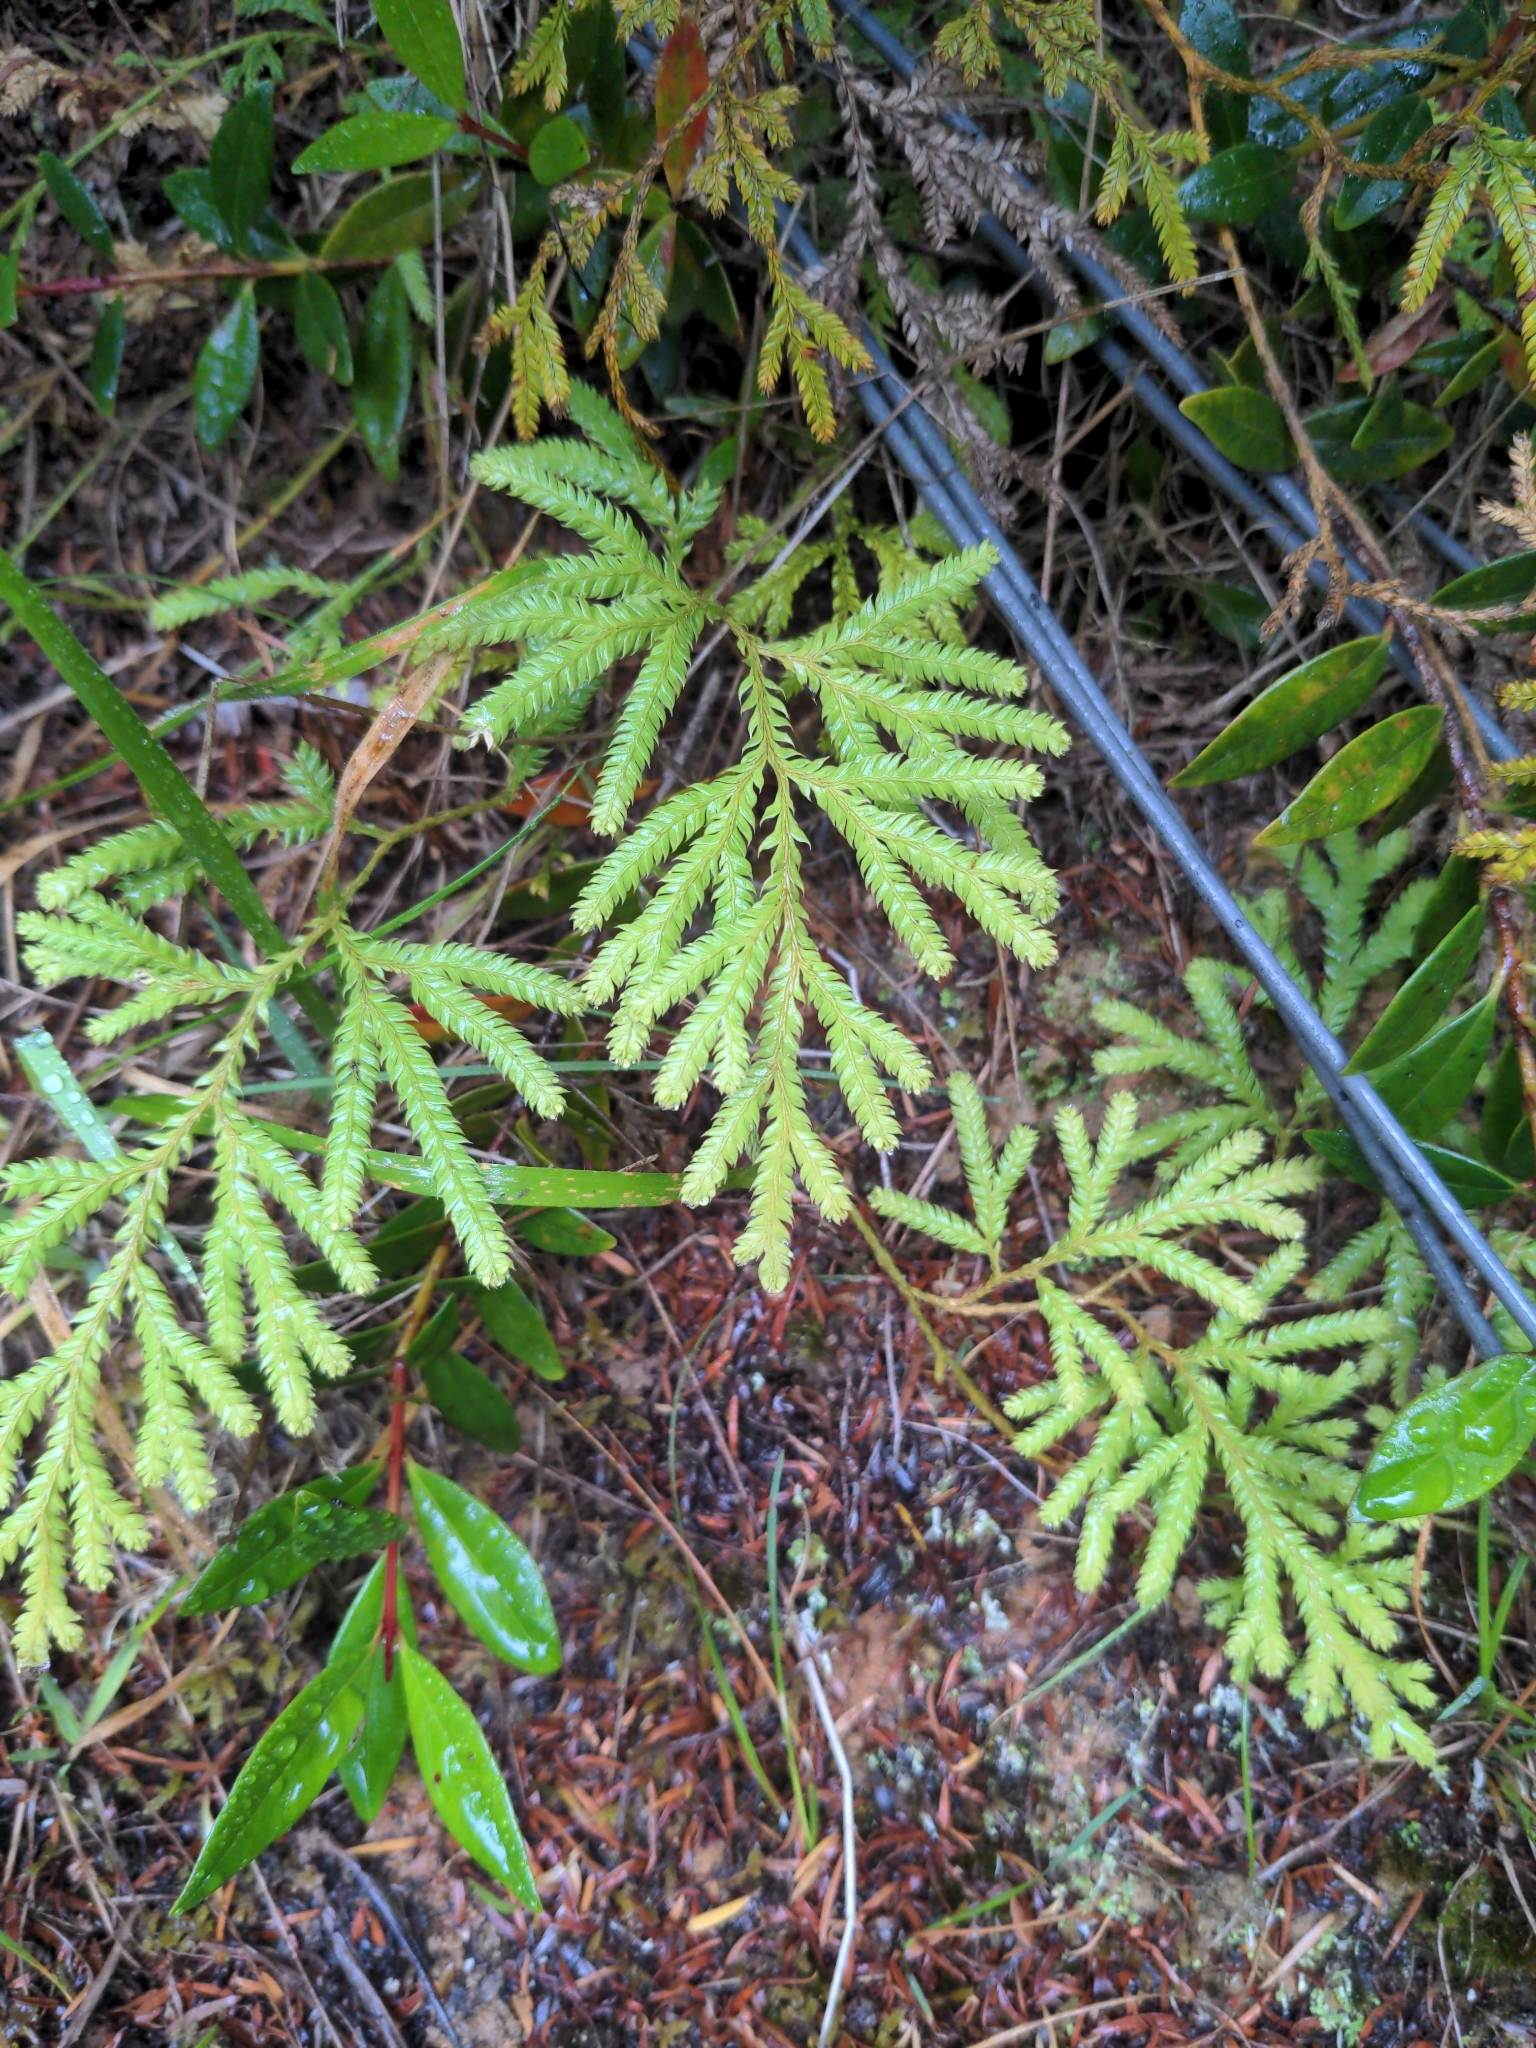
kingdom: Plantae
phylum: Tracheophyta
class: Lycopodiopsida
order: Lycopodiales
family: Lycopodiaceae
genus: Lycopodium
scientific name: Lycopodium volubile
